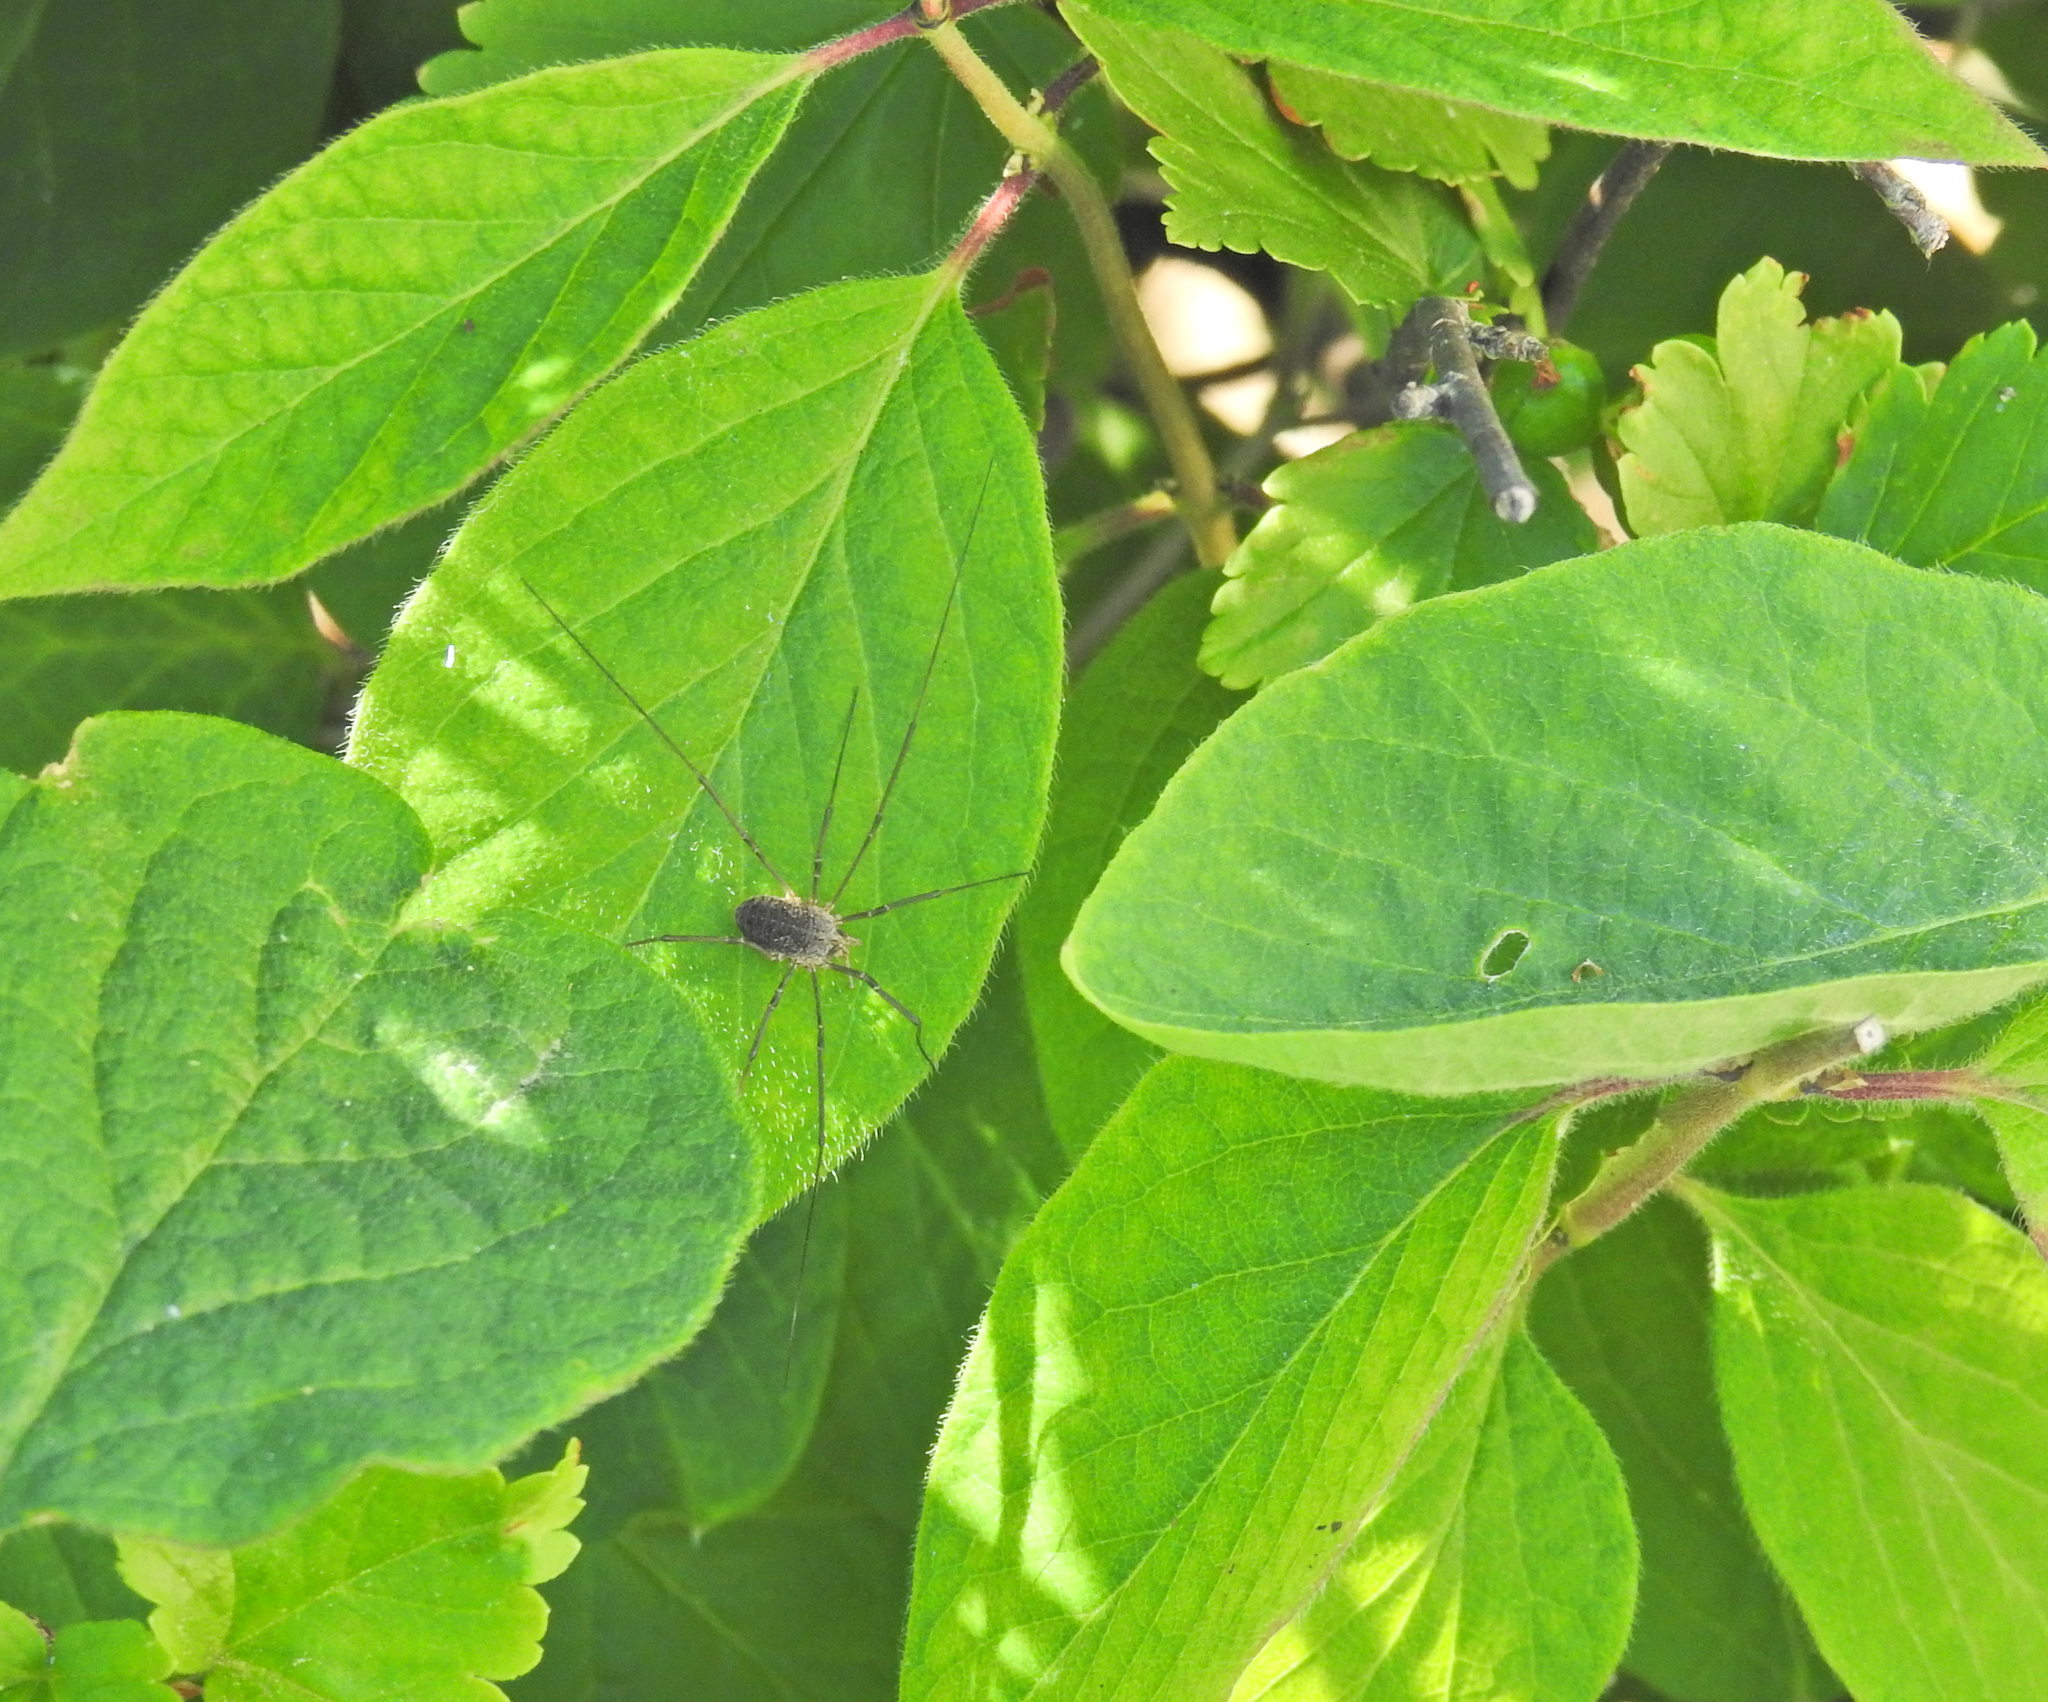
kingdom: Animalia
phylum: Arthropoda
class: Arachnida
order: Opiliones
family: Phalangiidae
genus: Phalangium
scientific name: Phalangium opilio
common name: Daddy longleg
